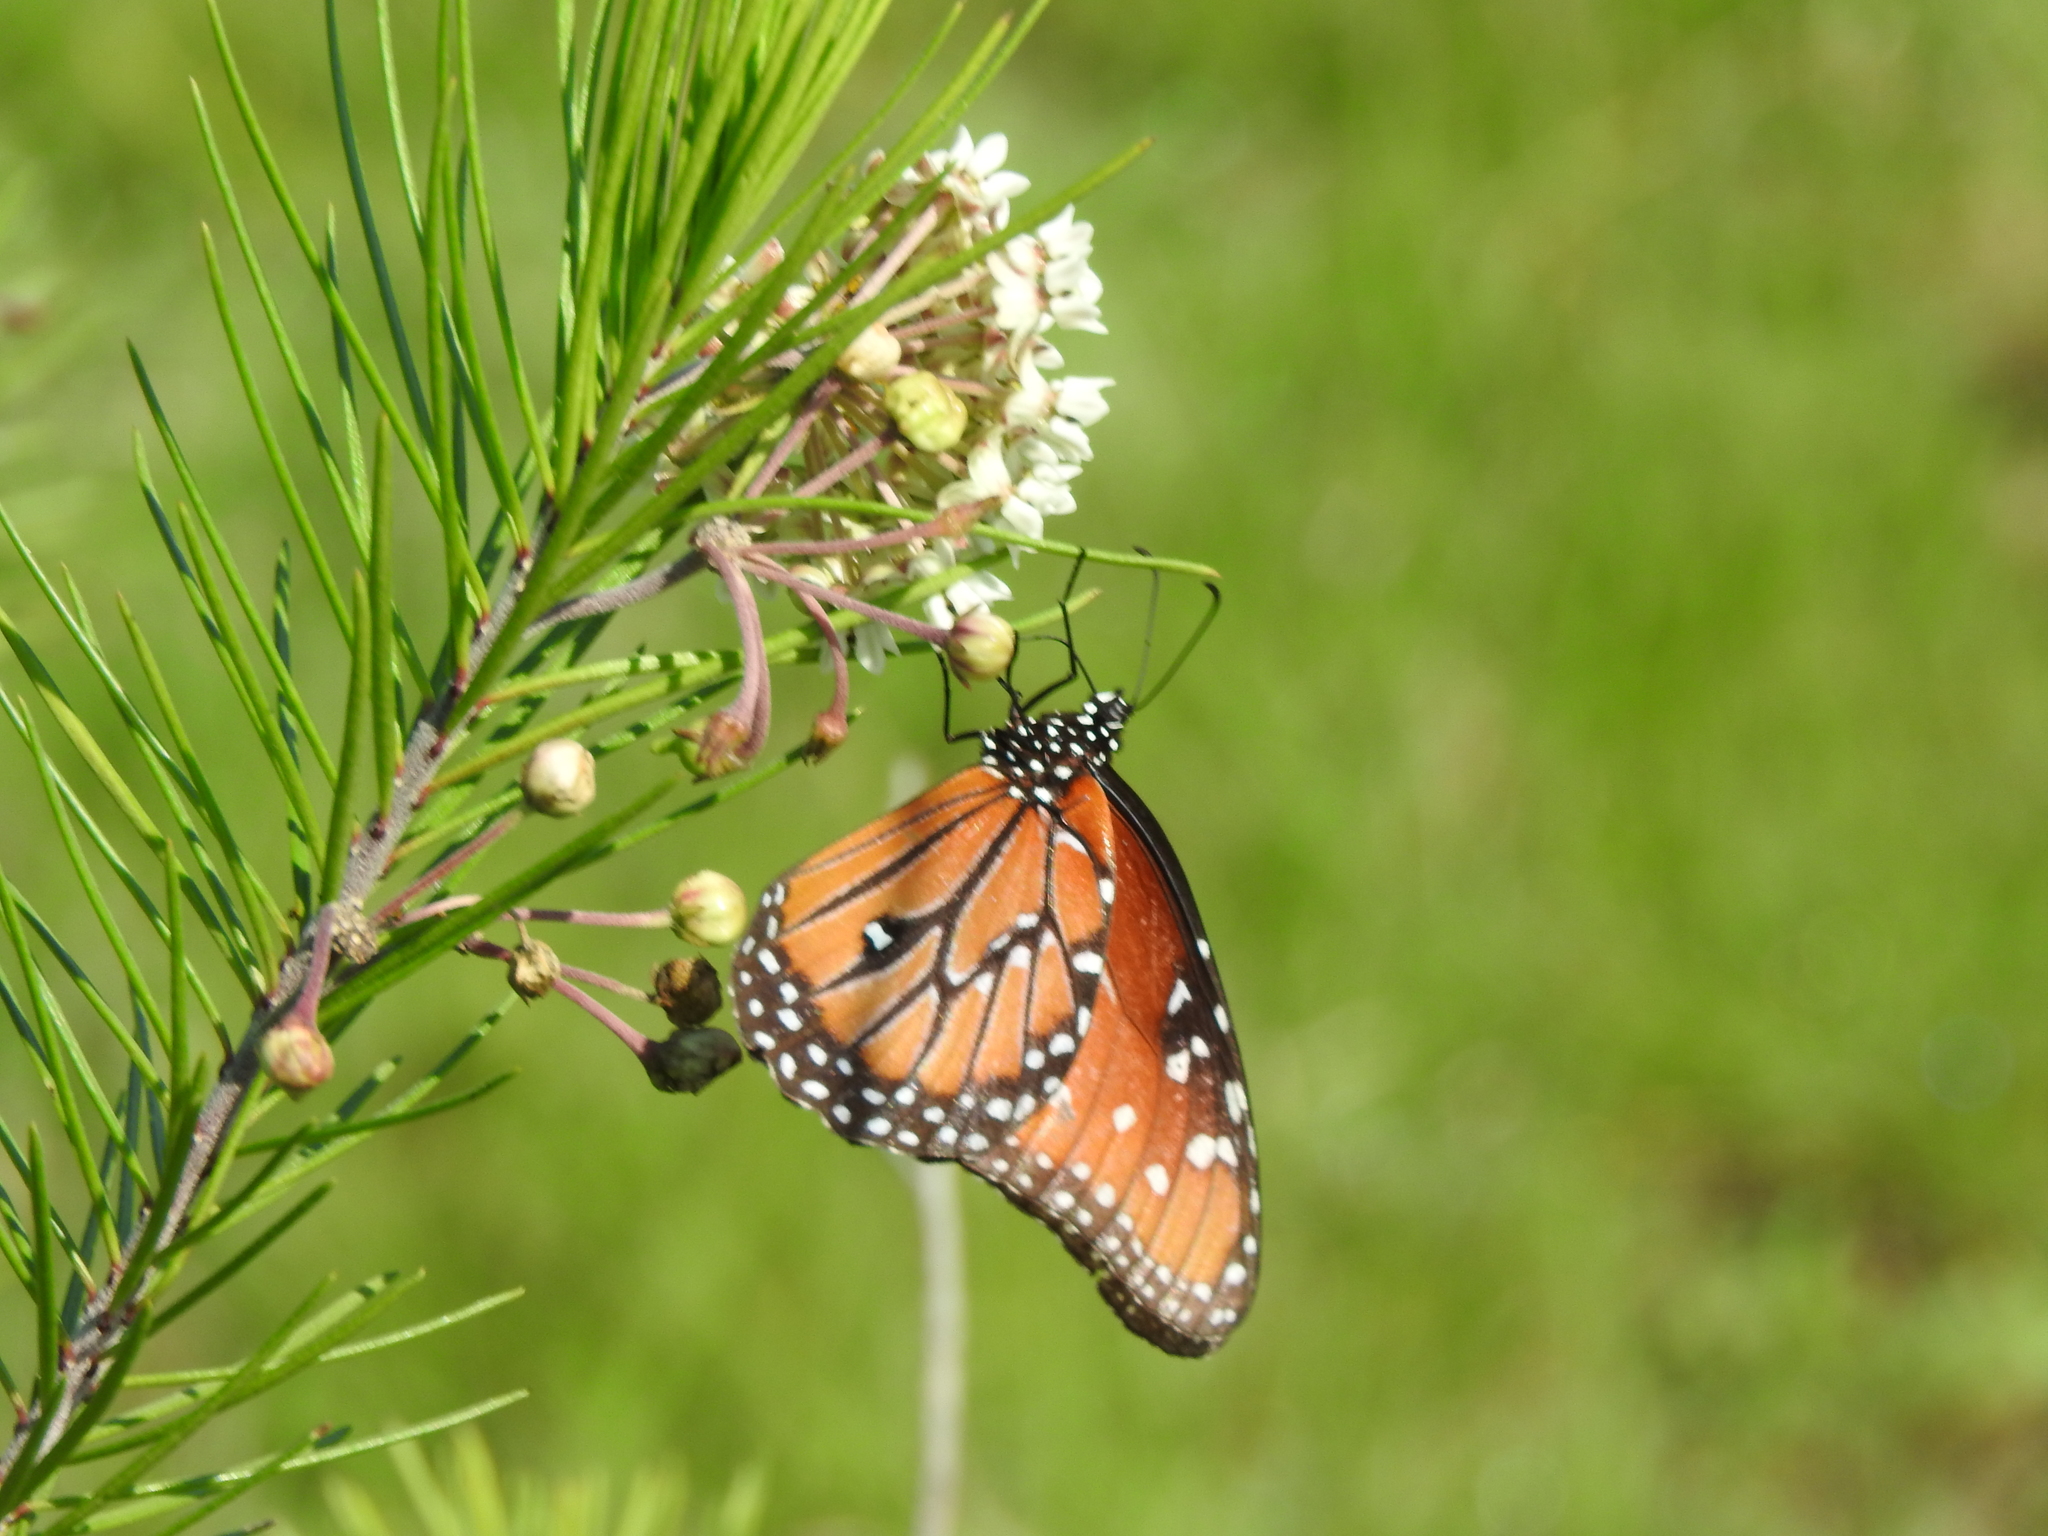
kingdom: Animalia
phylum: Arthropoda
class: Insecta
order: Lepidoptera
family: Nymphalidae
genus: Danaus
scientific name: Danaus gilippus
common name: Queen
